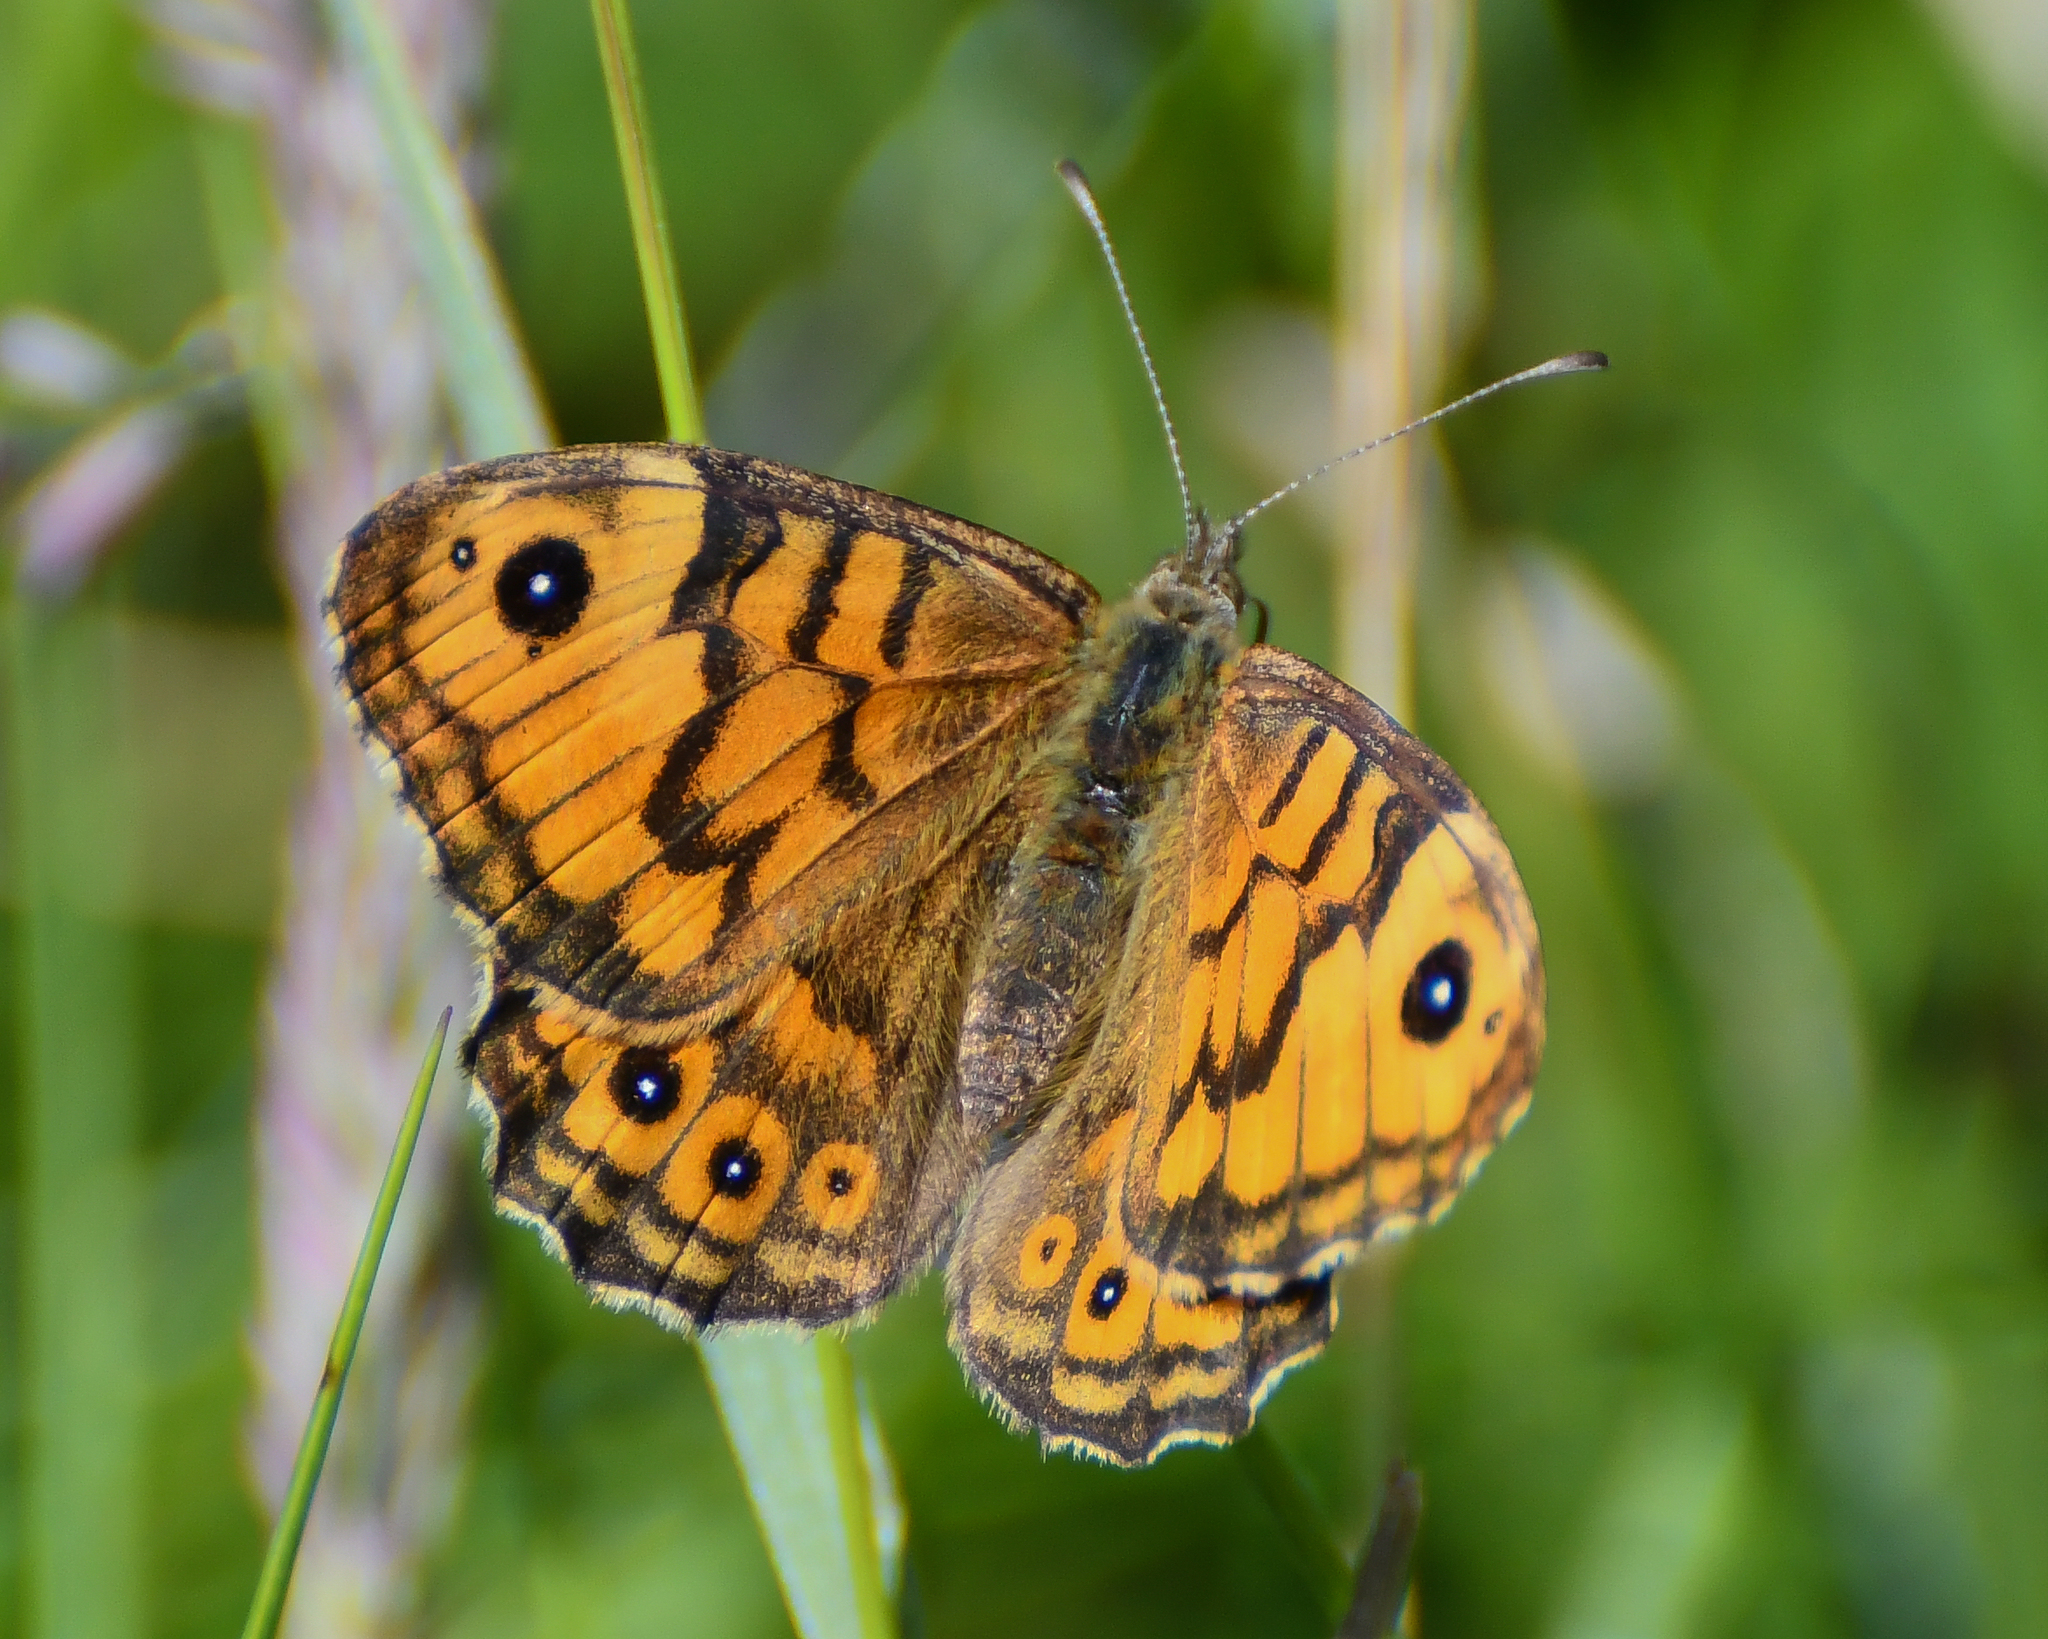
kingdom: Animalia
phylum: Arthropoda
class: Insecta
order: Lepidoptera
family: Nymphalidae
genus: Pararge
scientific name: Pararge Lasiommata megera
